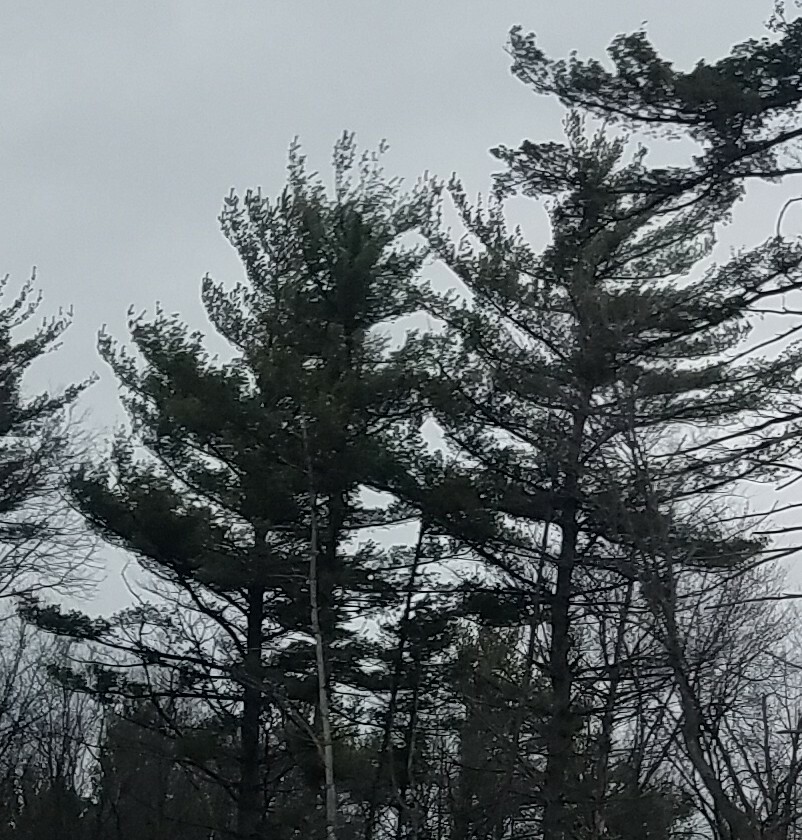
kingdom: Plantae
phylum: Tracheophyta
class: Pinopsida
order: Pinales
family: Pinaceae
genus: Pinus
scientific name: Pinus strobus
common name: Weymouth pine
